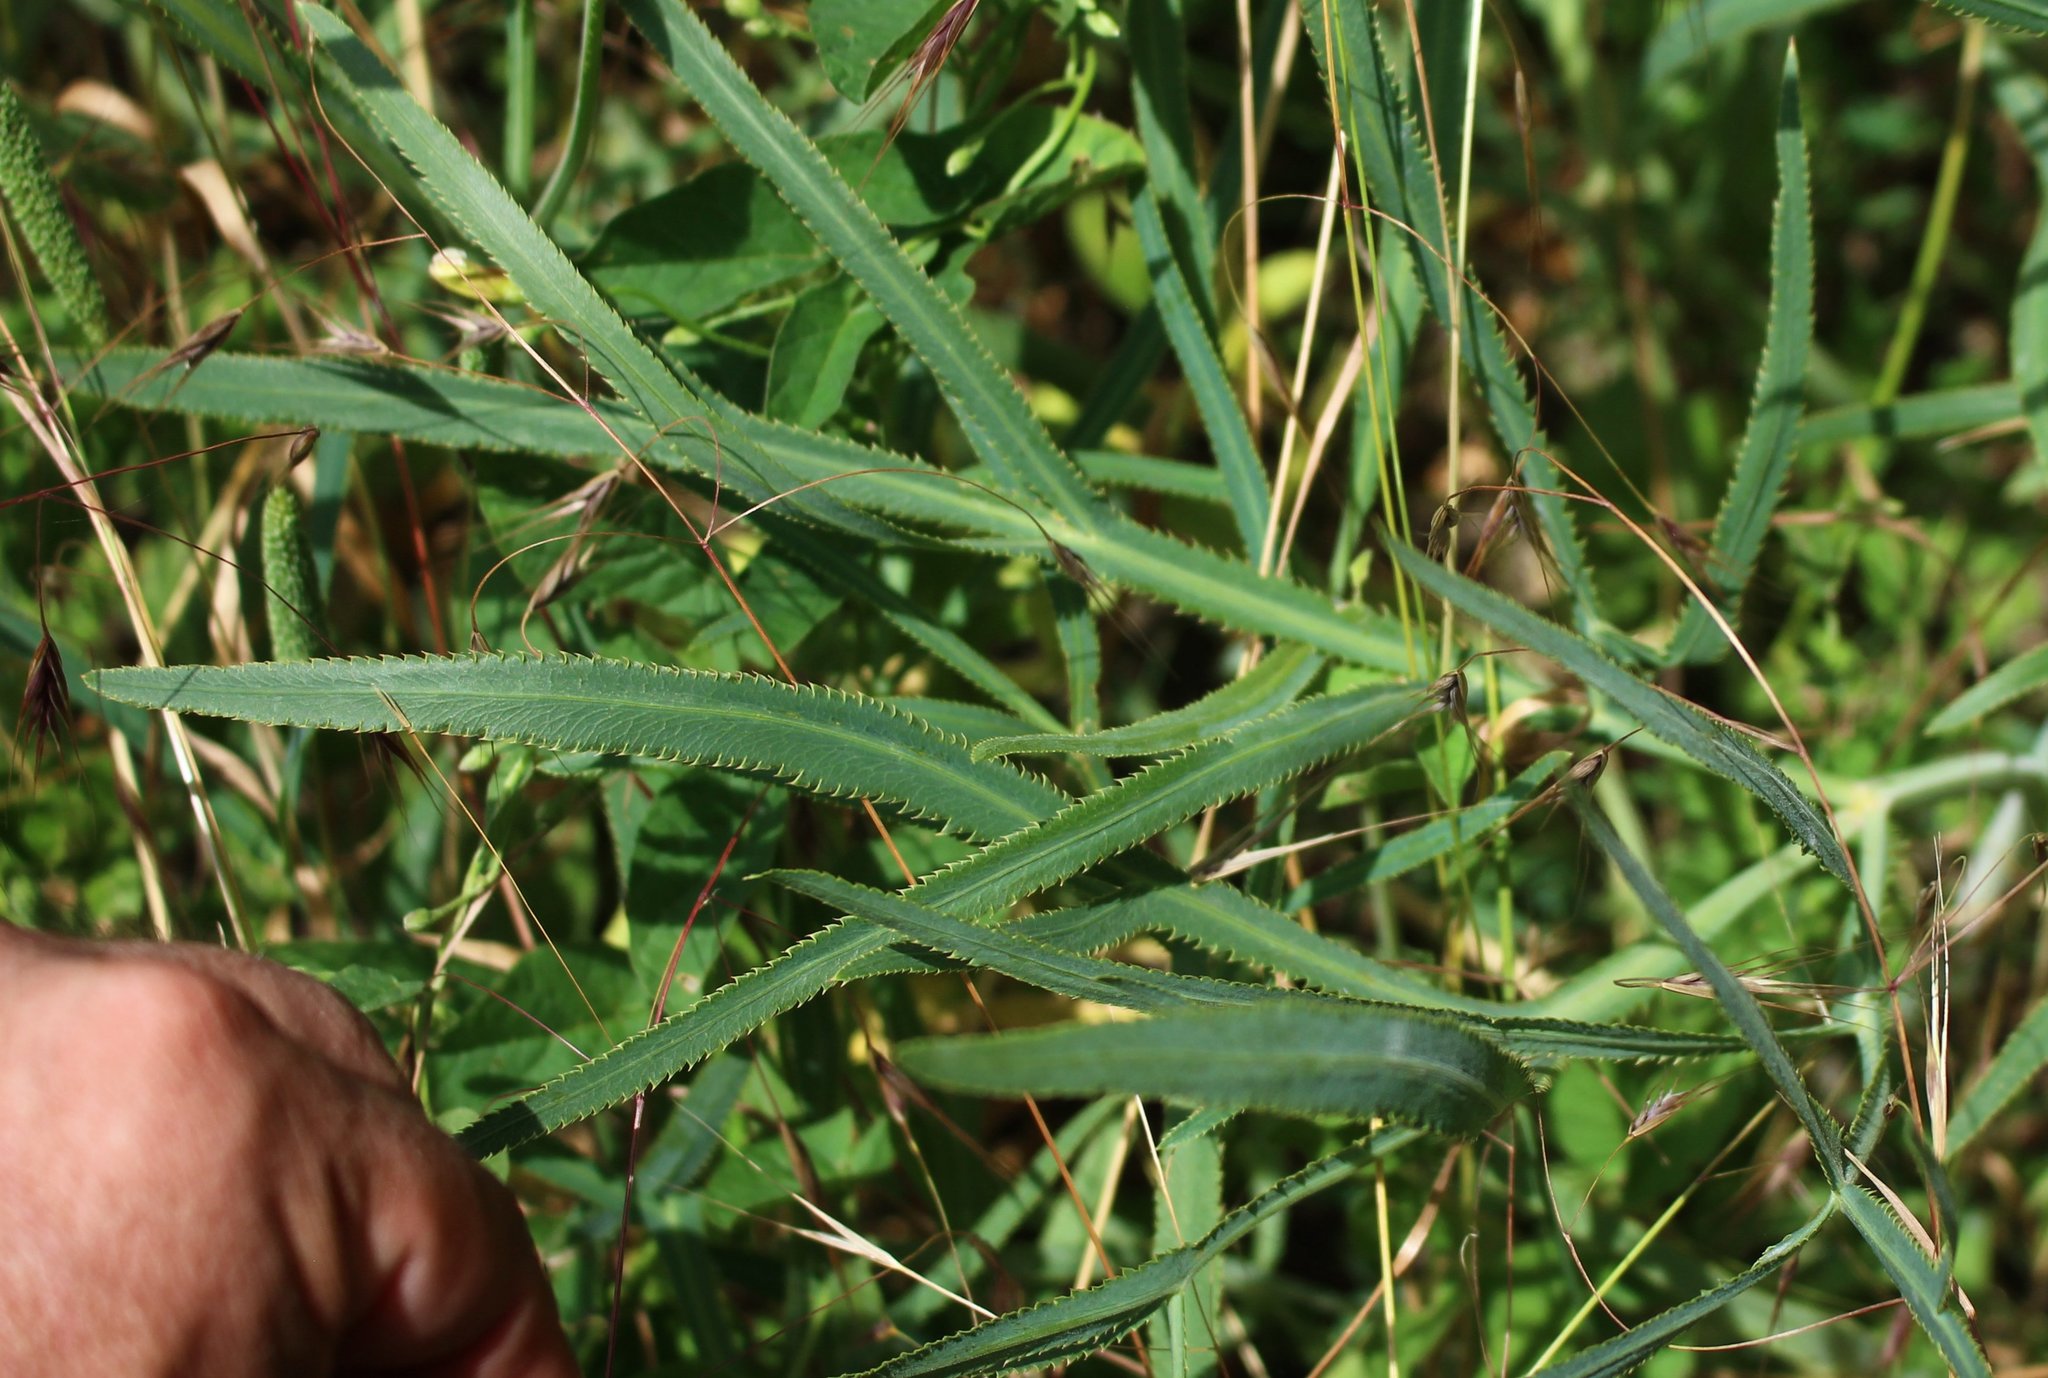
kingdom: Plantae
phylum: Tracheophyta
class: Magnoliopsida
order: Apiales
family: Apiaceae
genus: Falcaria
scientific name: Falcaria vulgaris
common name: Longleaf
